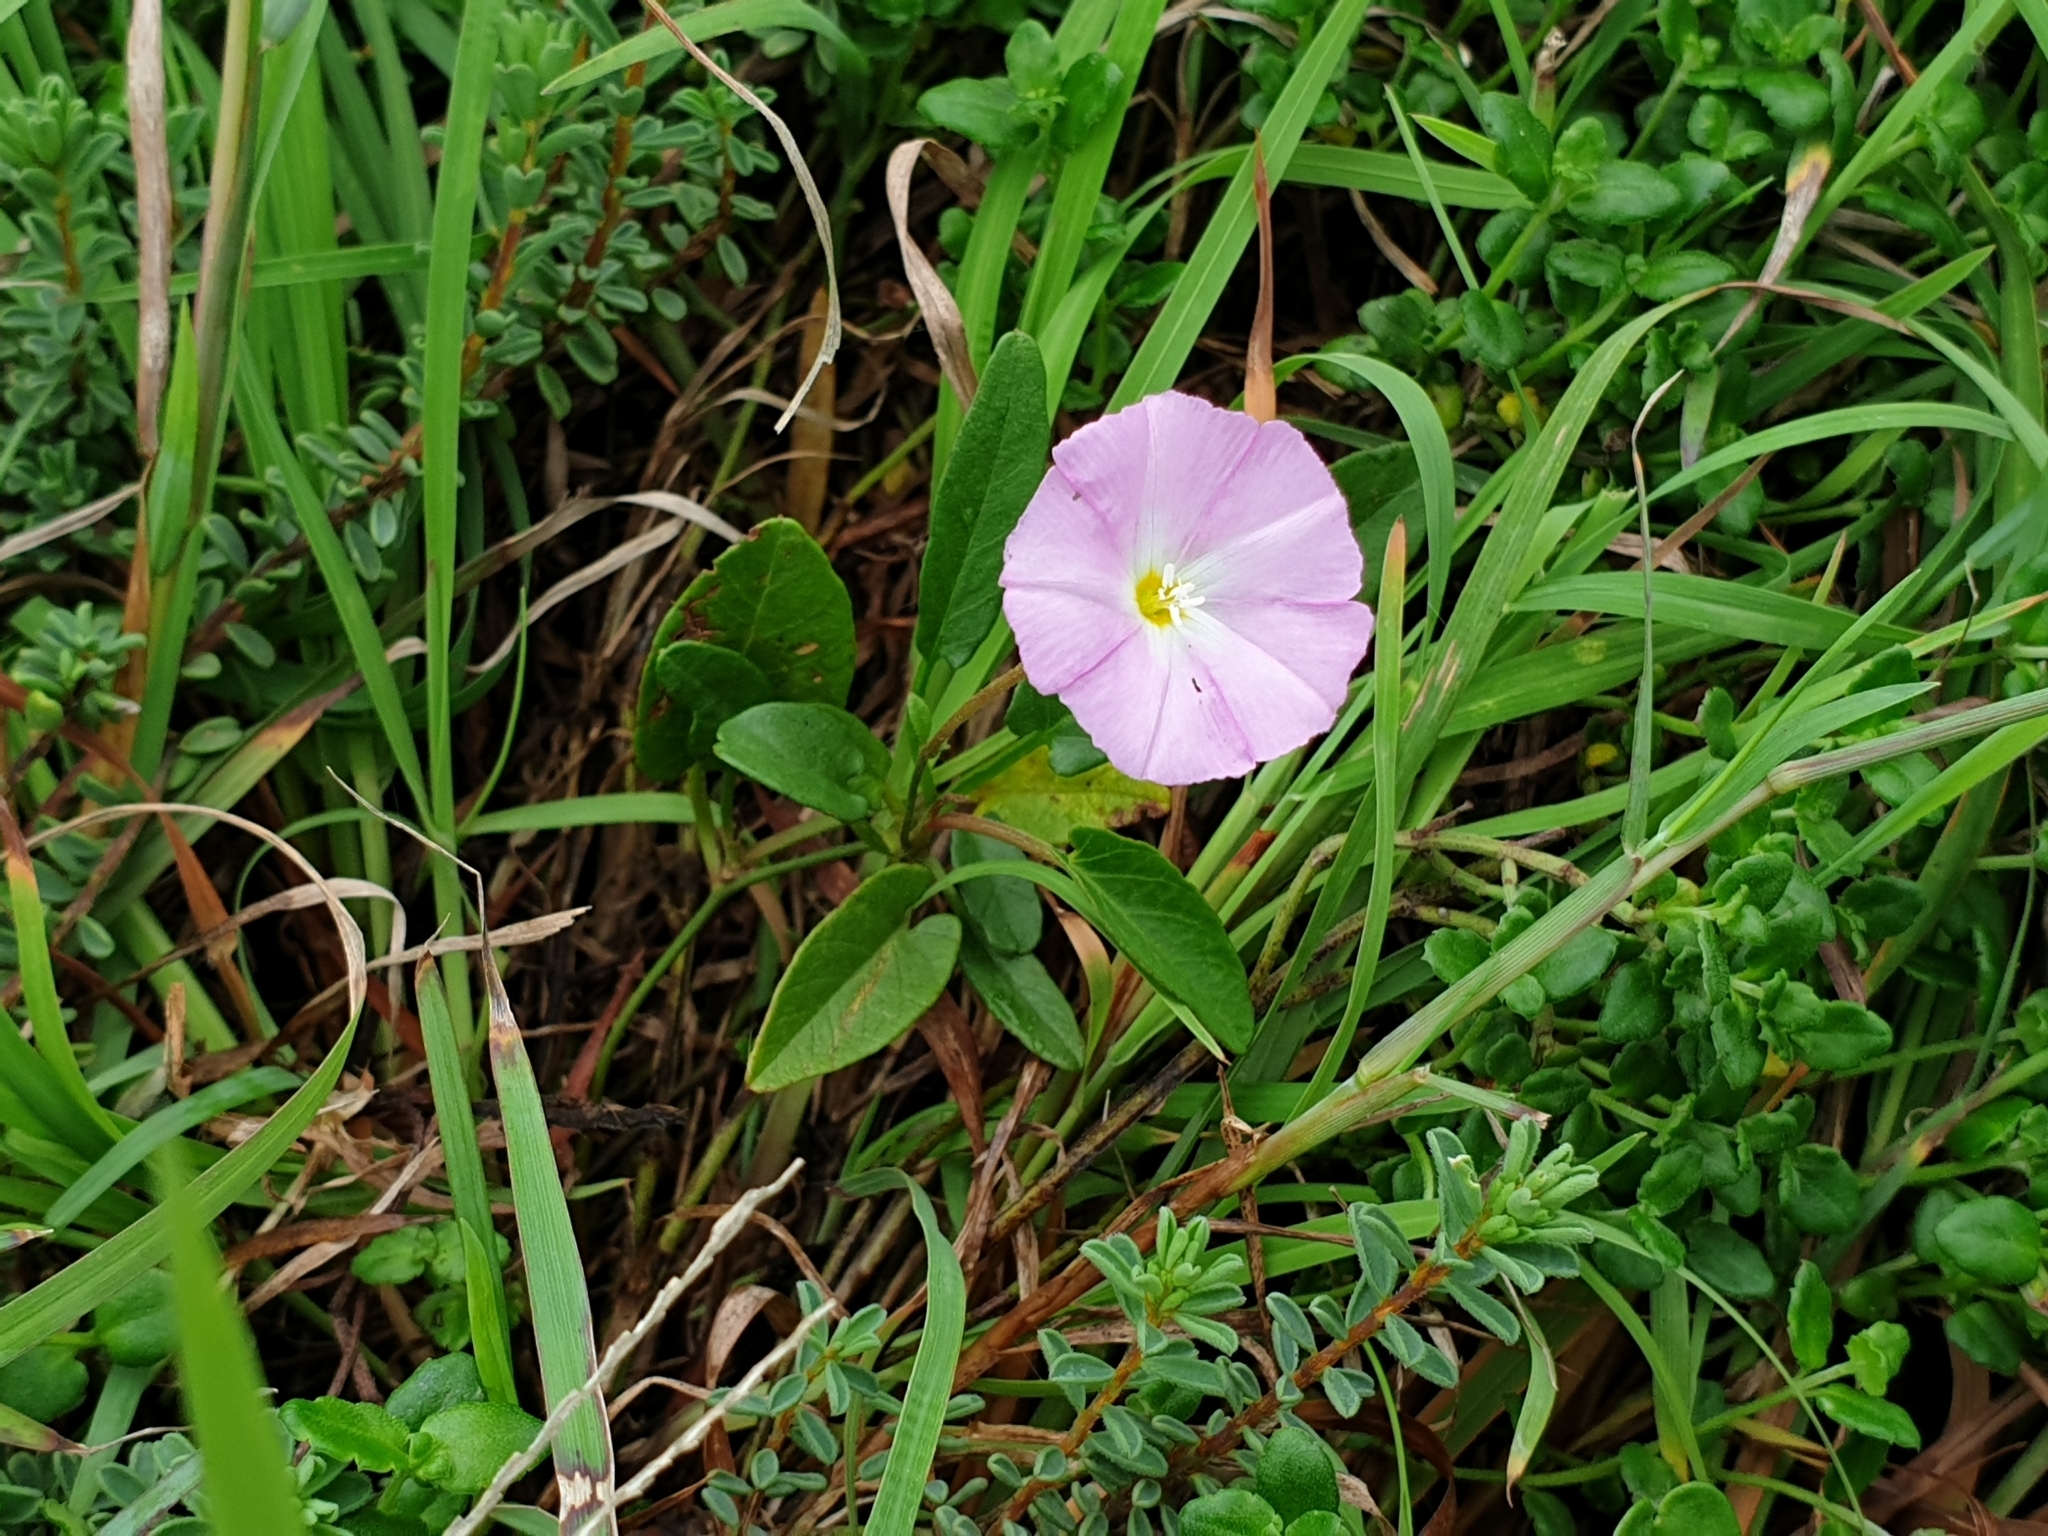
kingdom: Plantae
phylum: Tracheophyta
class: Magnoliopsida
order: Solanales
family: Convolvulaceae
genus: Polymeria
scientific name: Polymeria calycina
